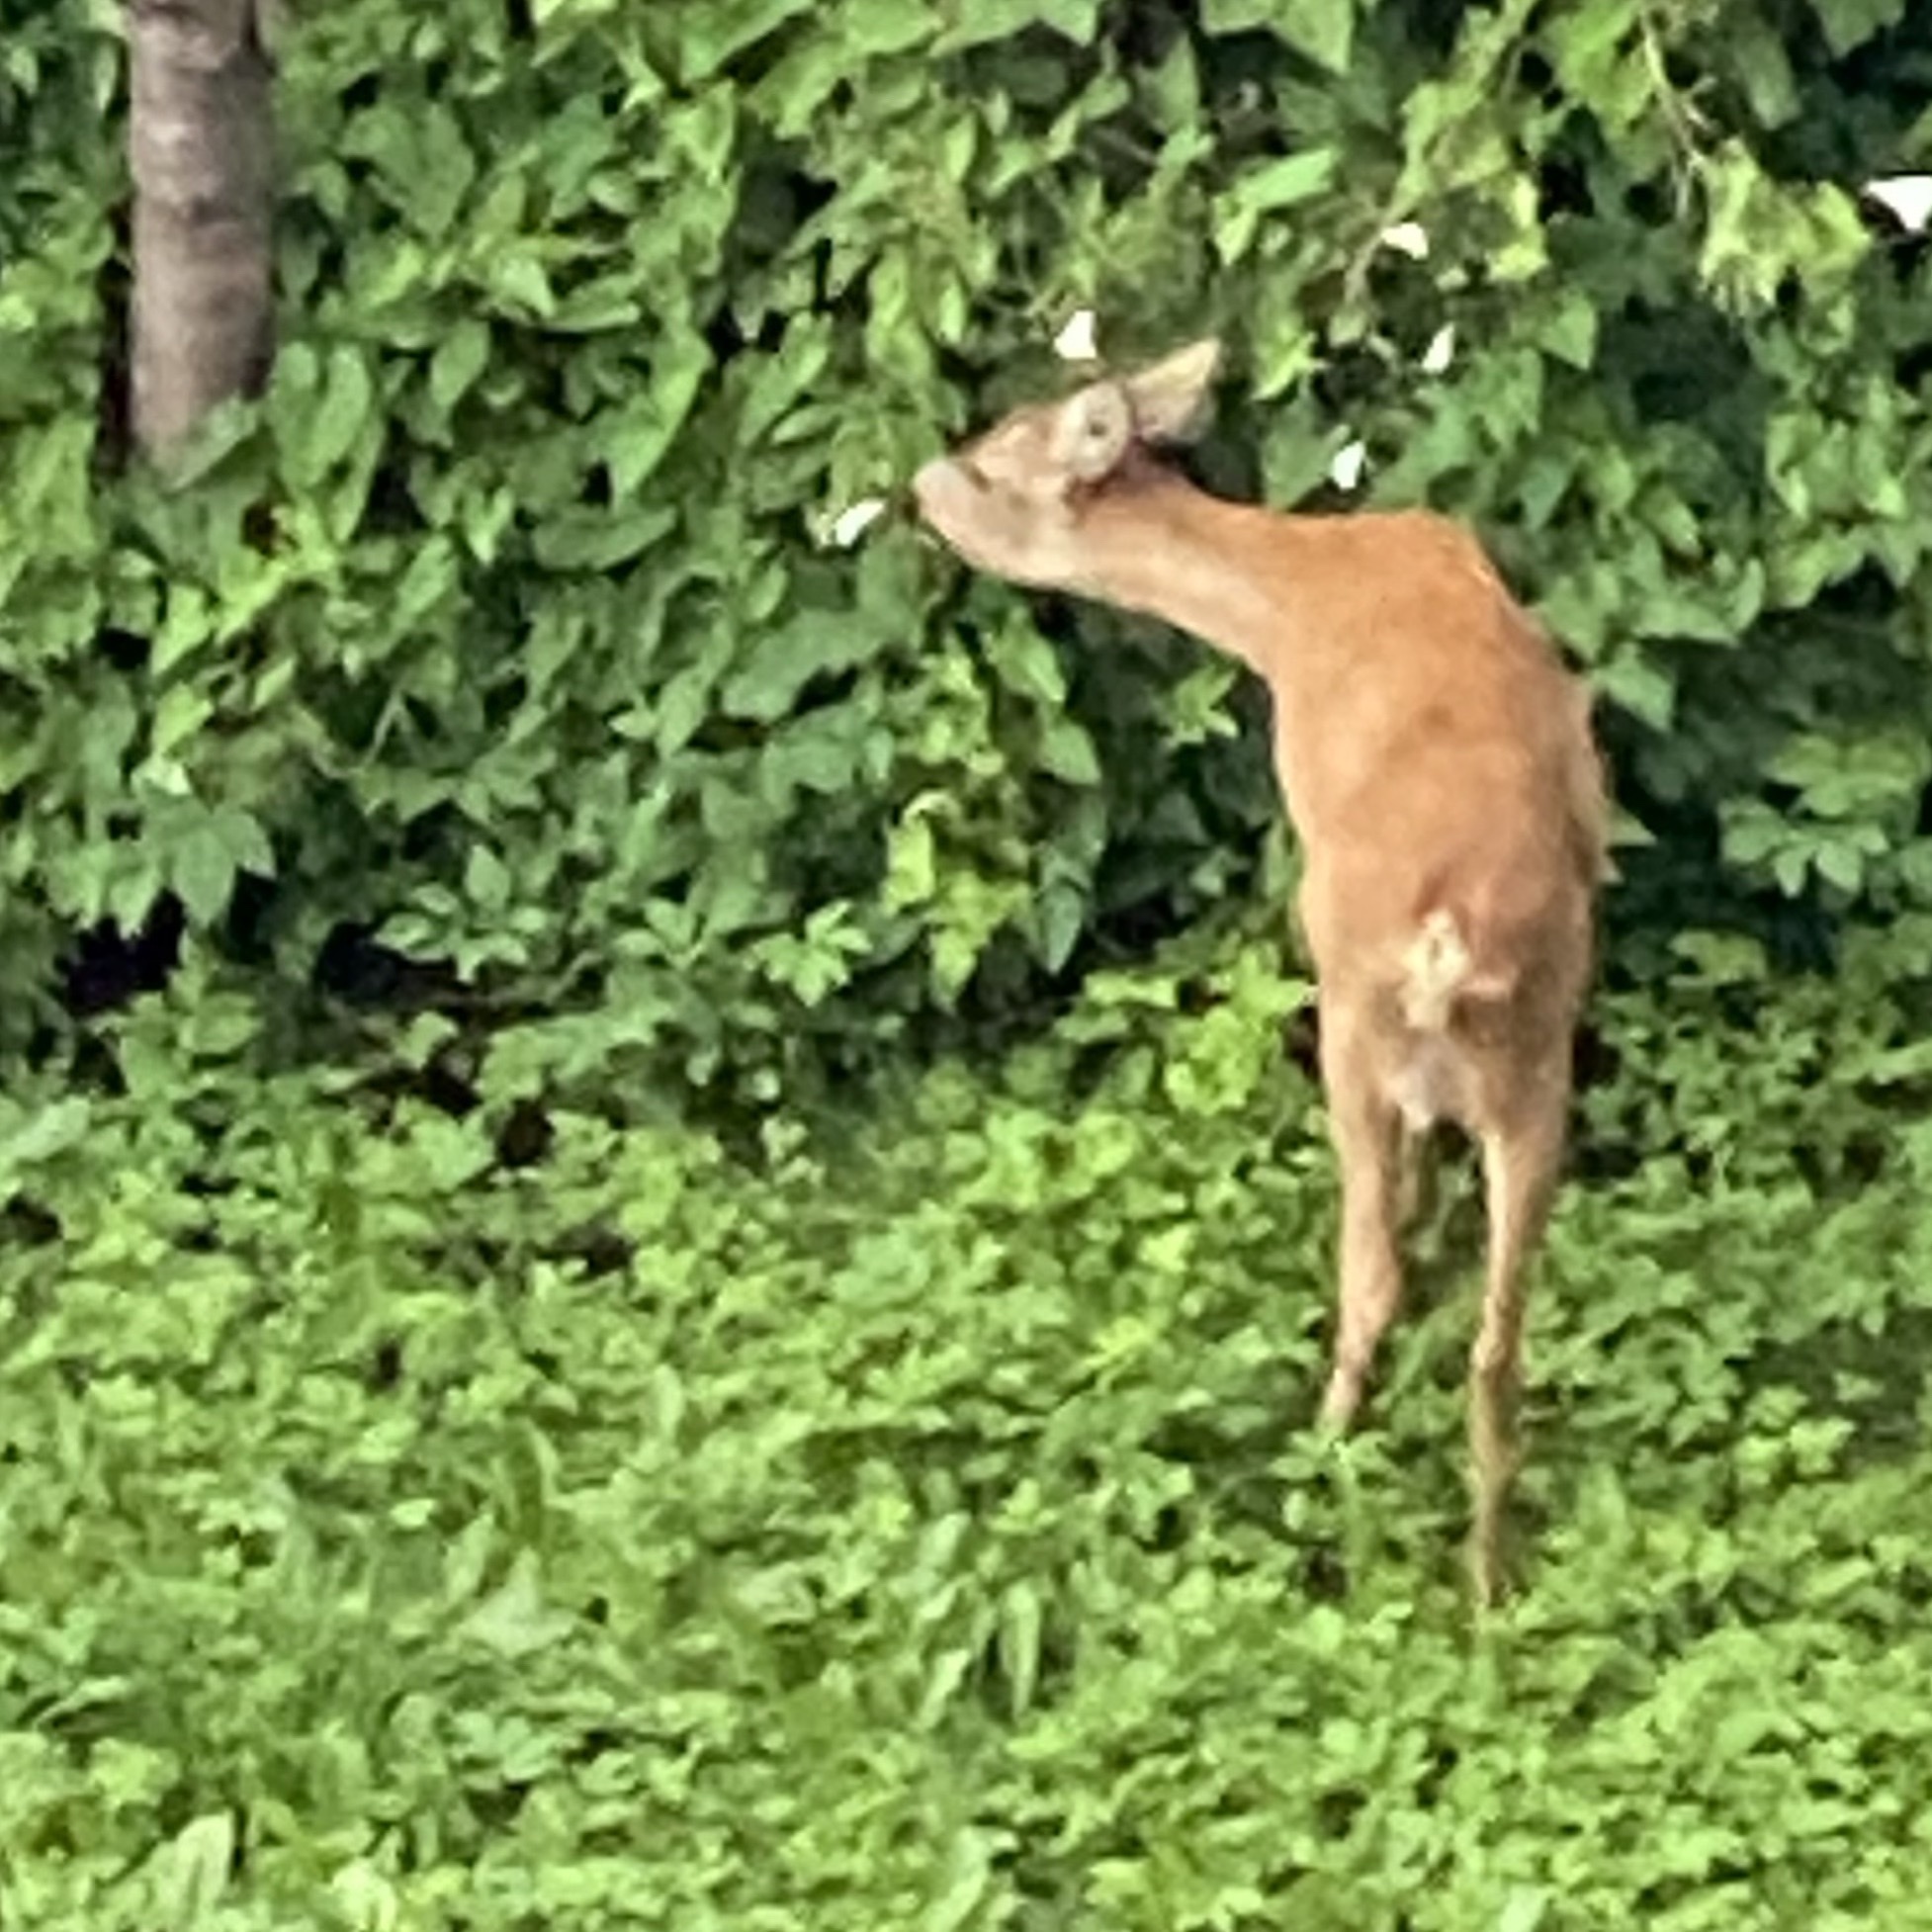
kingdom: Animalia
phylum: Chordata
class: Mammalia
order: Artiodactyla
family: Cervidae
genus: Capreolus
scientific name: Capreolus capreolus
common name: Western roe deer
